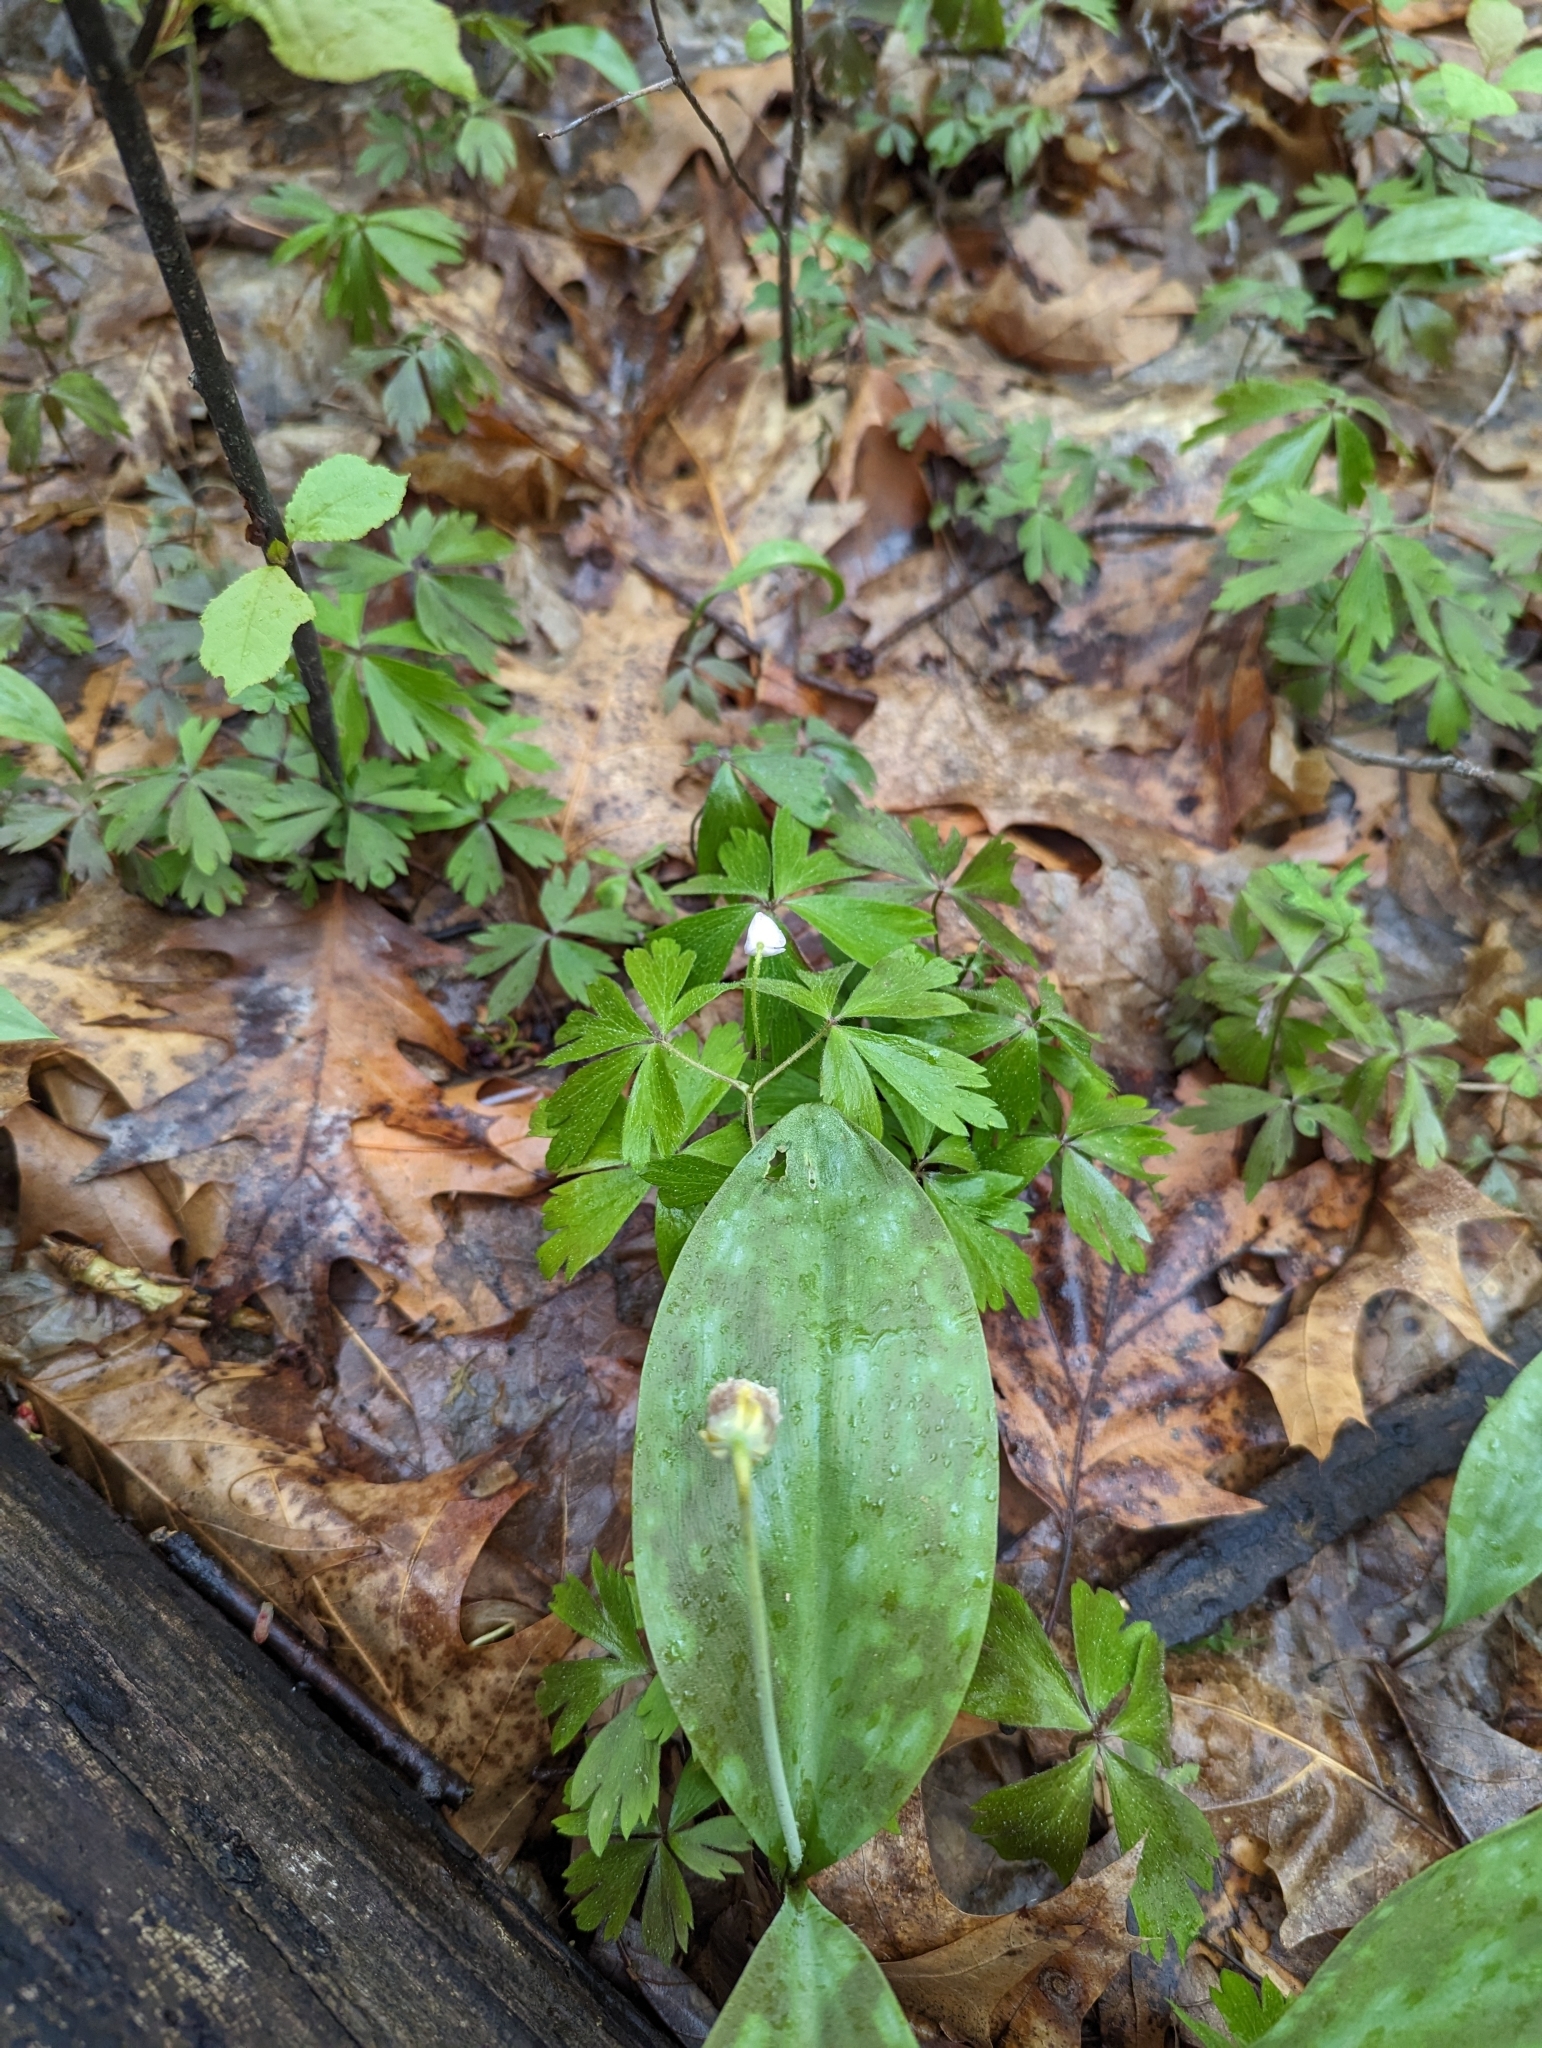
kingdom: Plantae
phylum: Tracheophyta
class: Magnoliopsida
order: Ranunculales
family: Ranunculaceae
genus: Anemone
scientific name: Anemone quinquefolia
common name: Wood anemone
